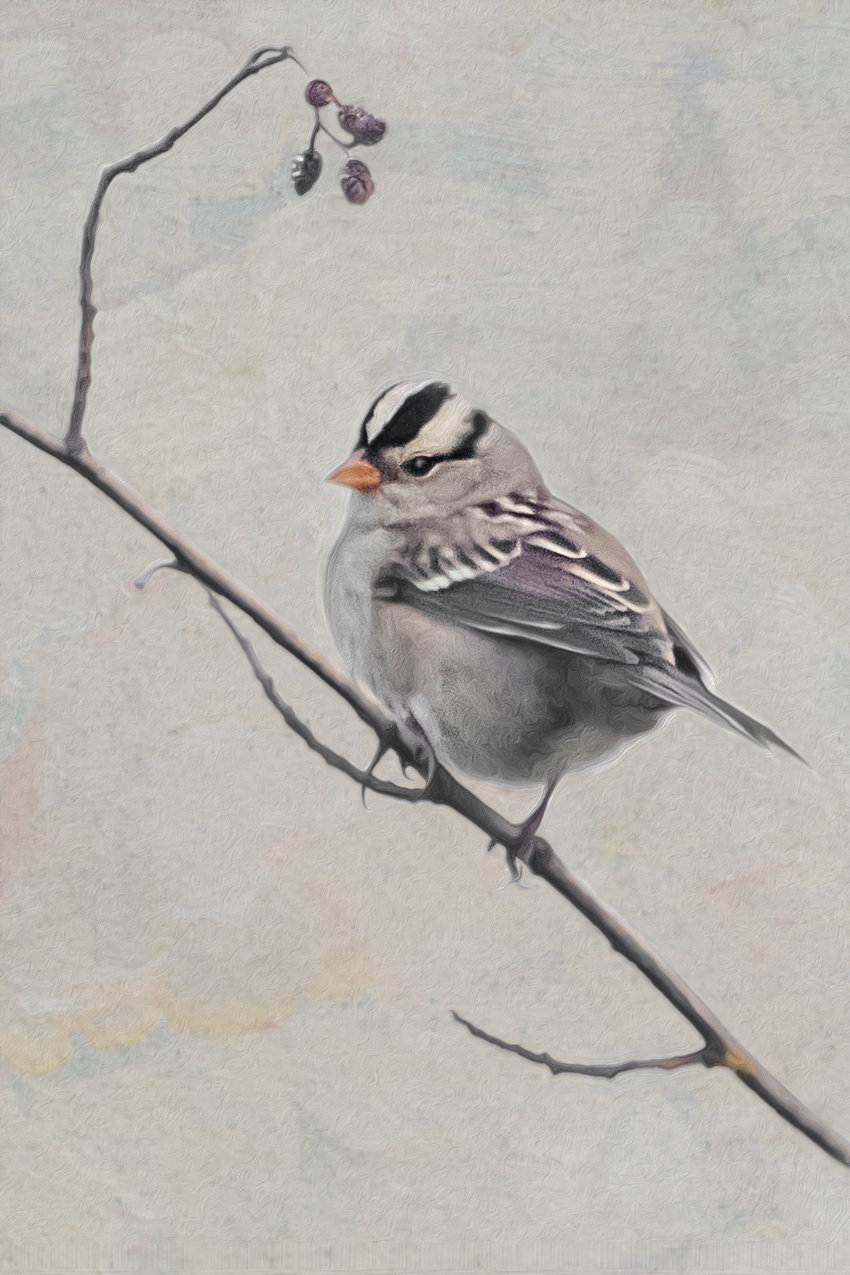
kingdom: Animalia
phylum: Chordata
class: Aves
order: Passeriformes
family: Passerellidae
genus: Zonotrichia
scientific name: Zonotrichia leucophrys
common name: White-crowned sparrow
